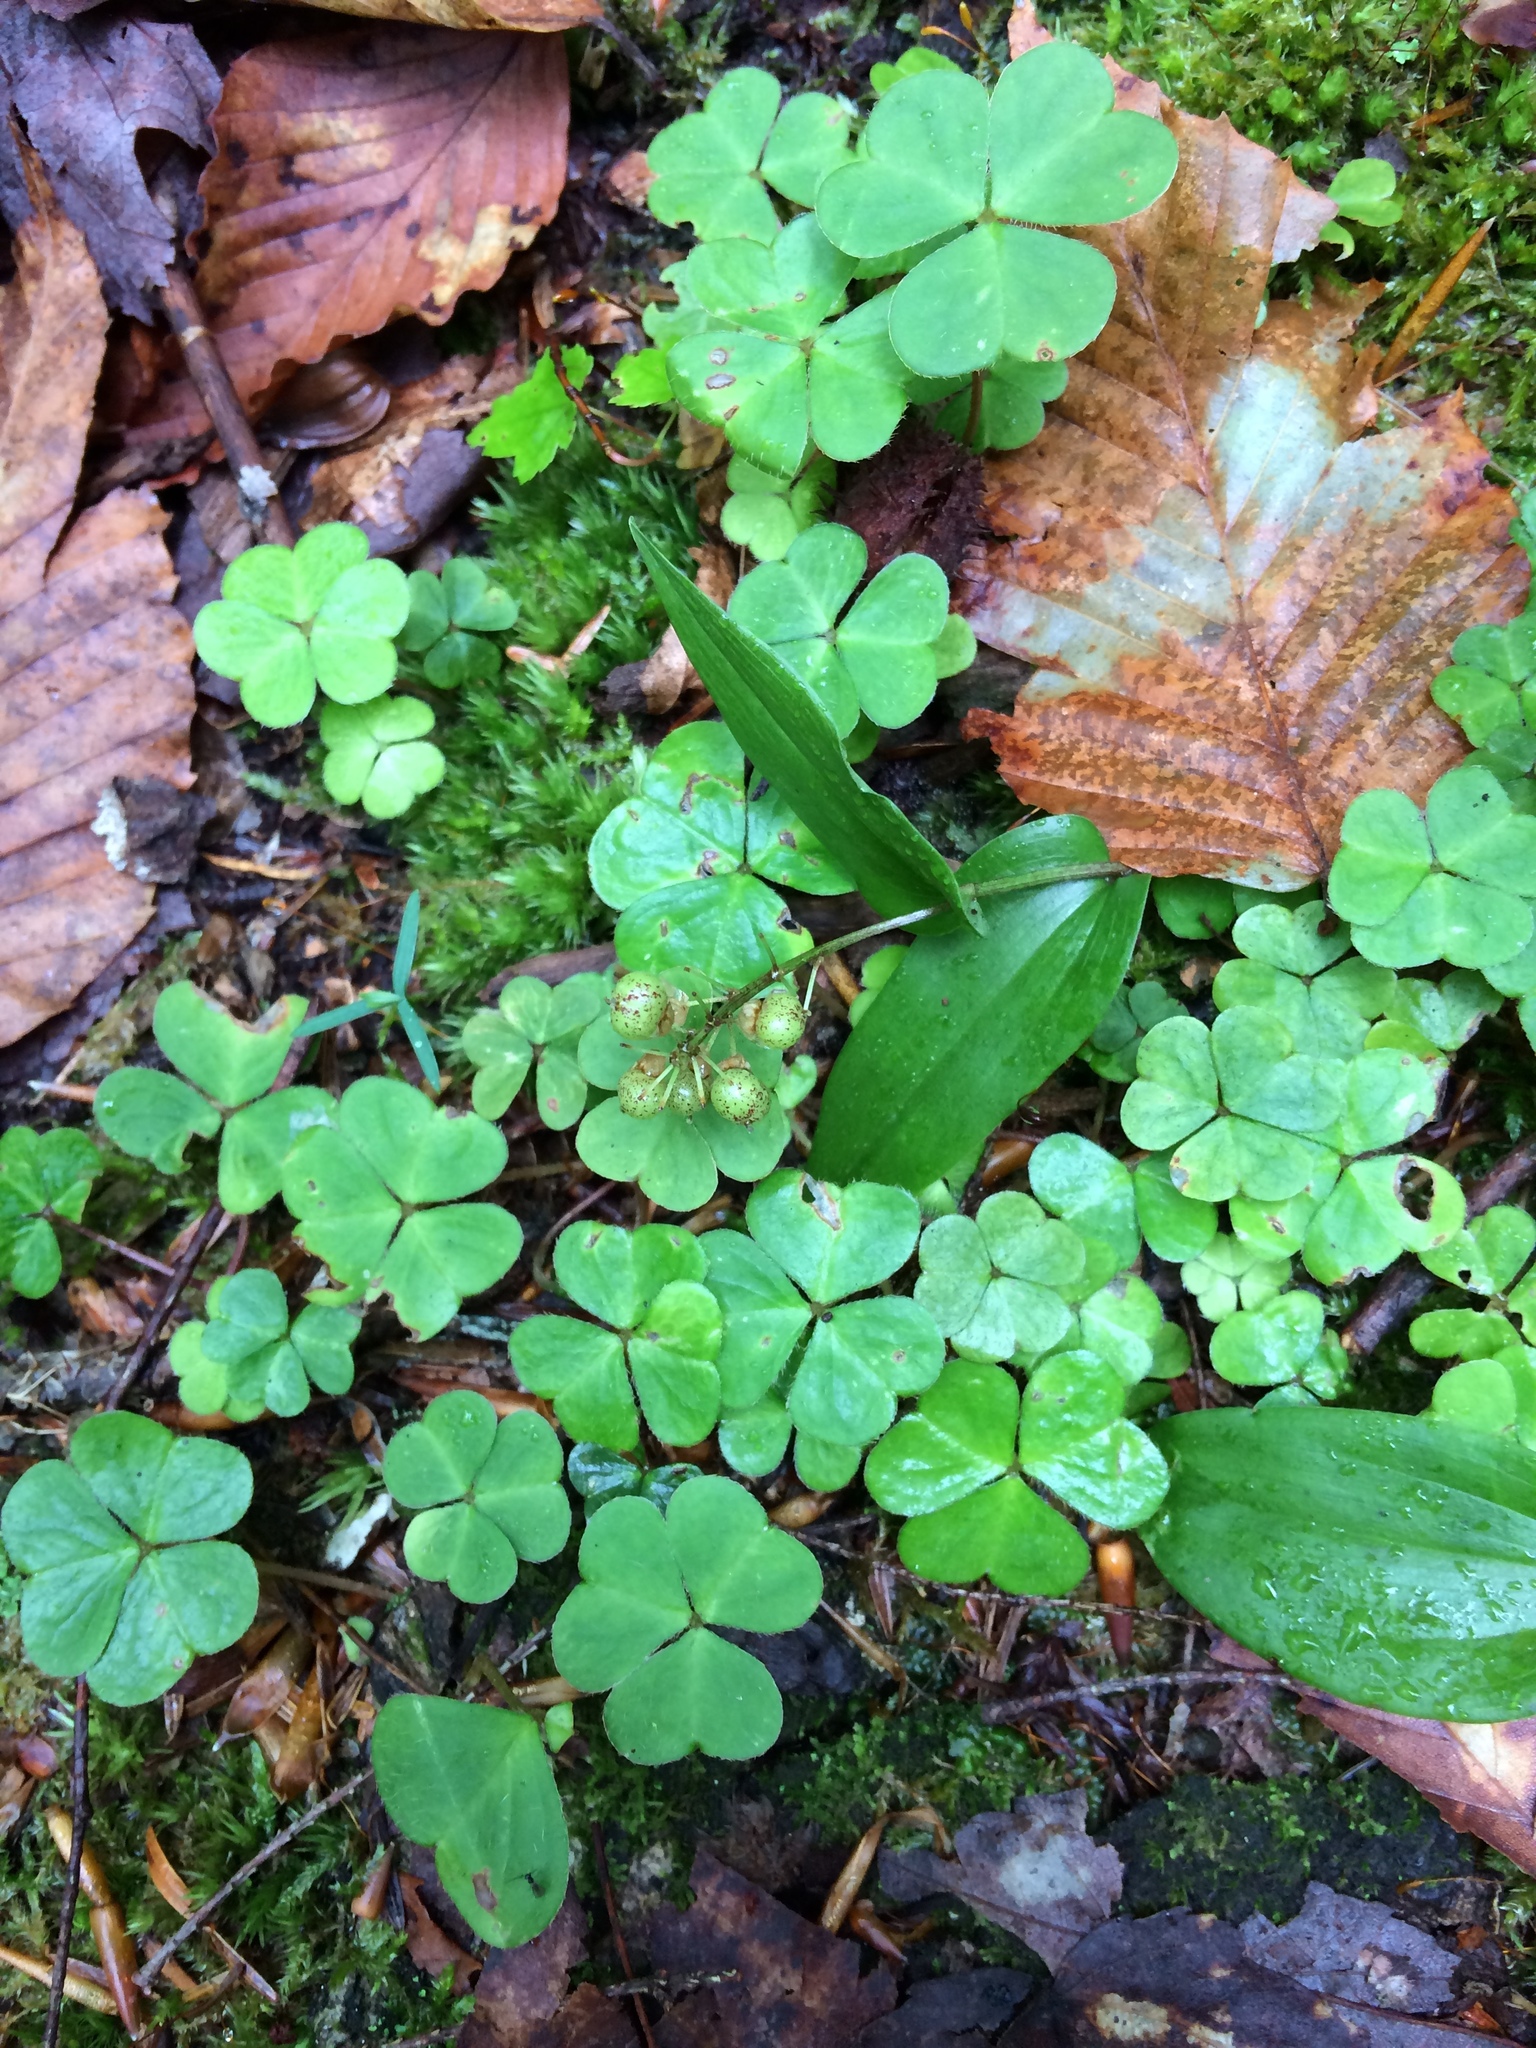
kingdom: Plantae
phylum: Tracheophyta
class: Magnoliopsida
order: Oxalidales
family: Oxalidaceae
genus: Oxalis
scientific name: Oxalis montana
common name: American wood-sorrel
